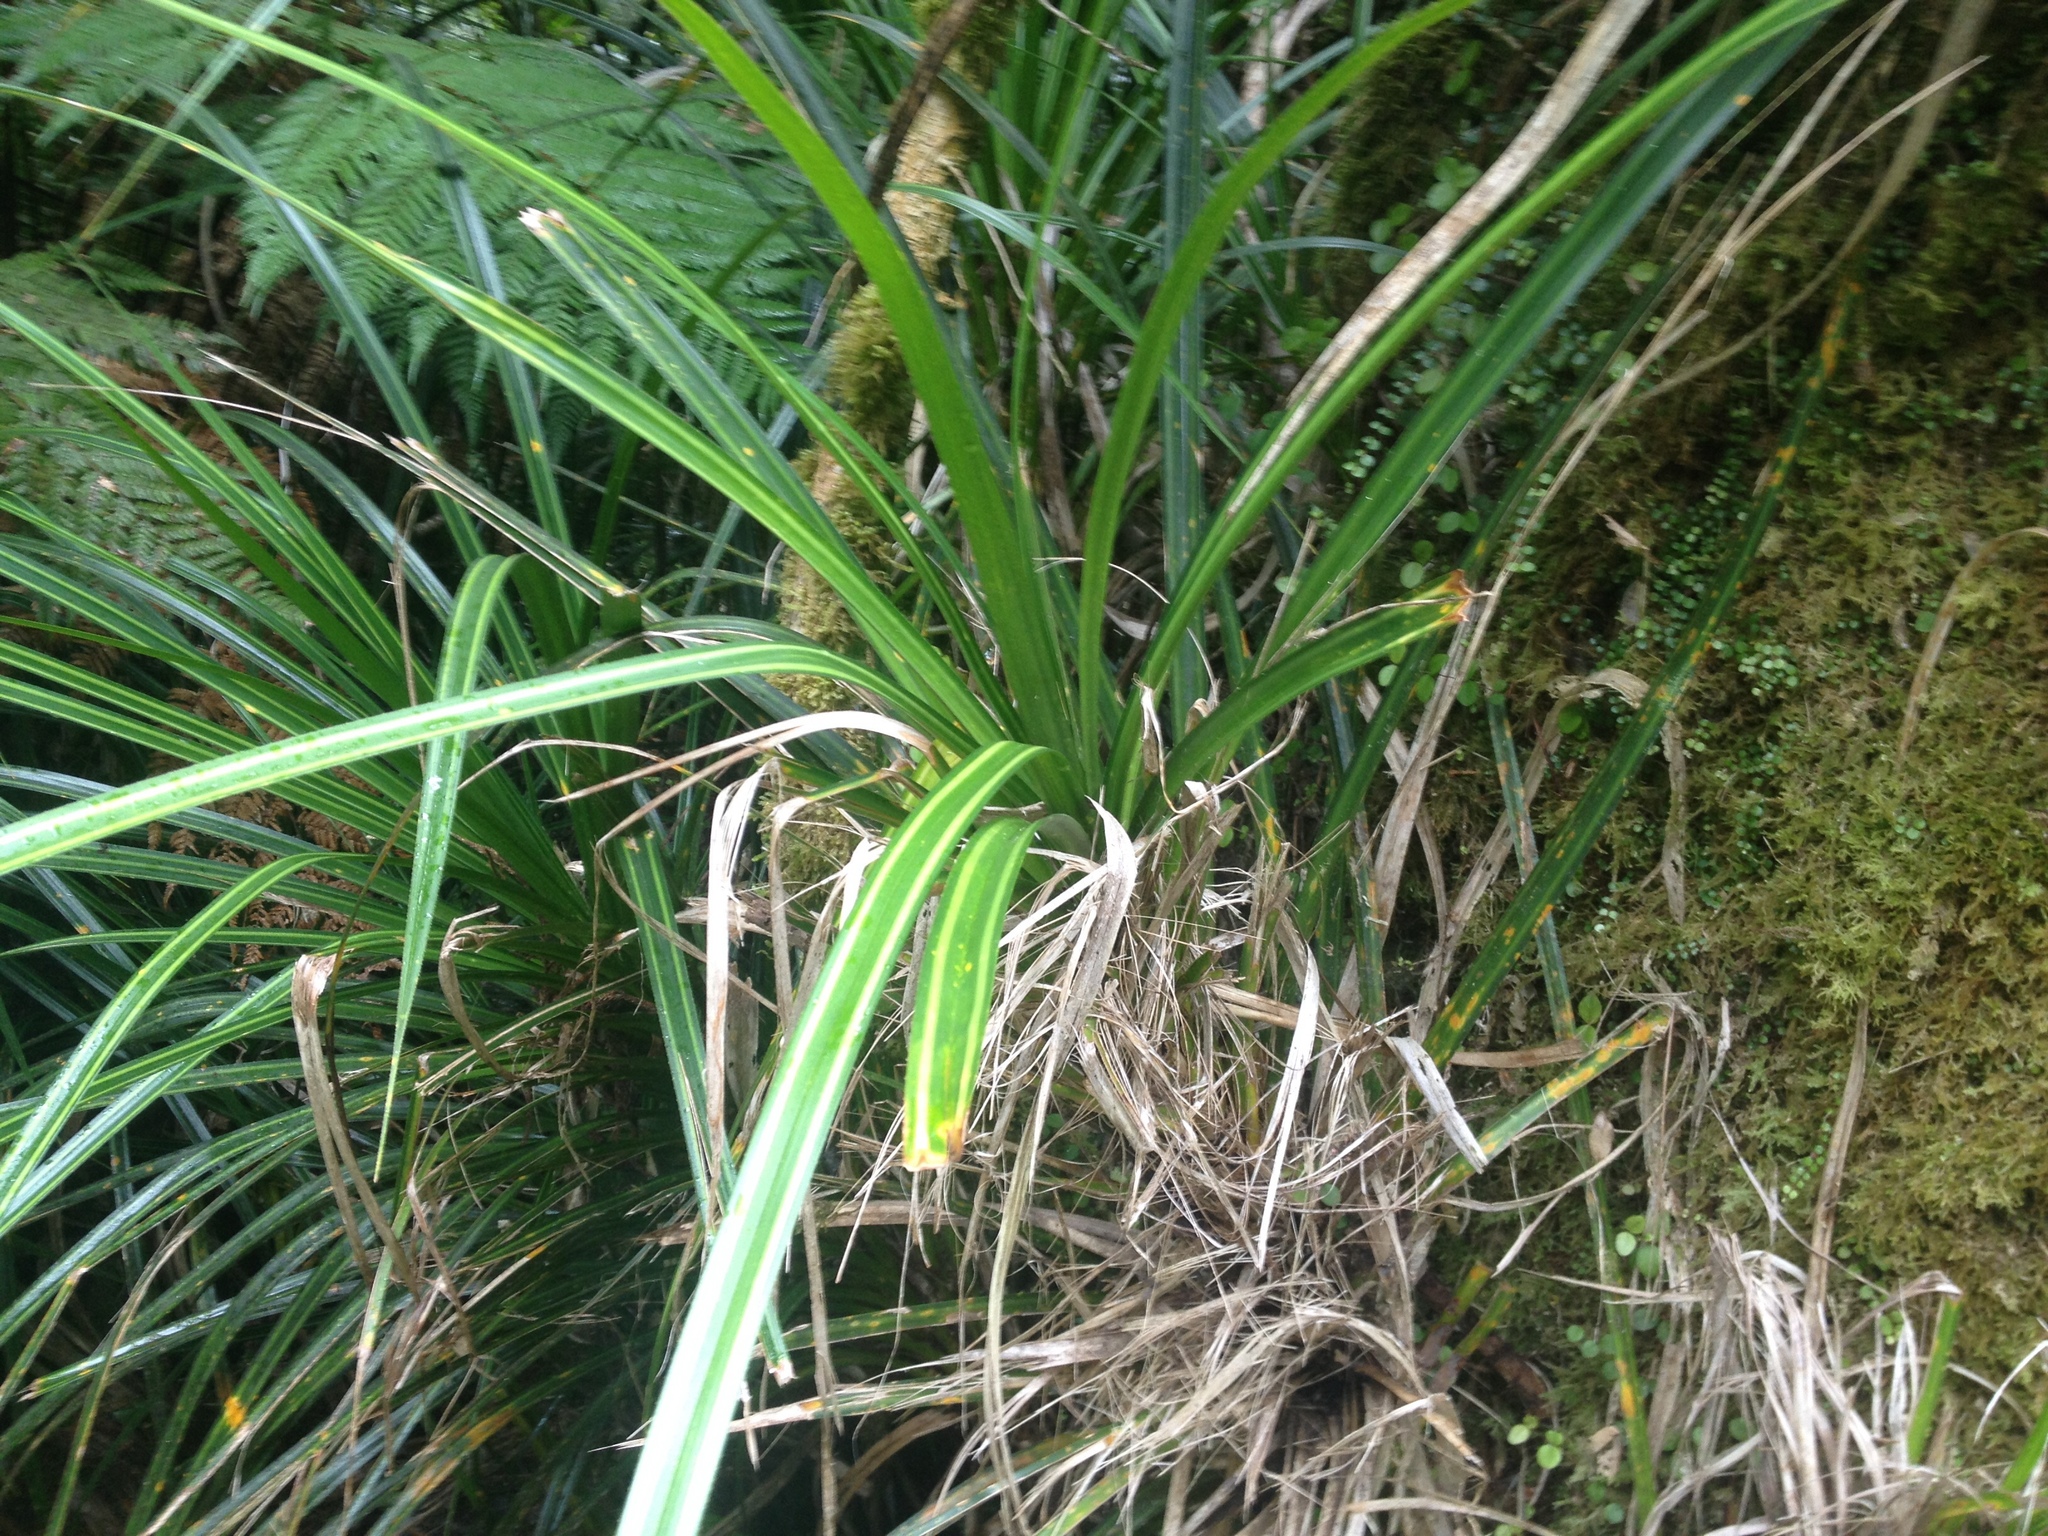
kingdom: Plantae
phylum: Tracheophyta
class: Liliopsida
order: Pandanales
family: Pandanaceae
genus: Freycinetia
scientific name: Freycinetia banksii
